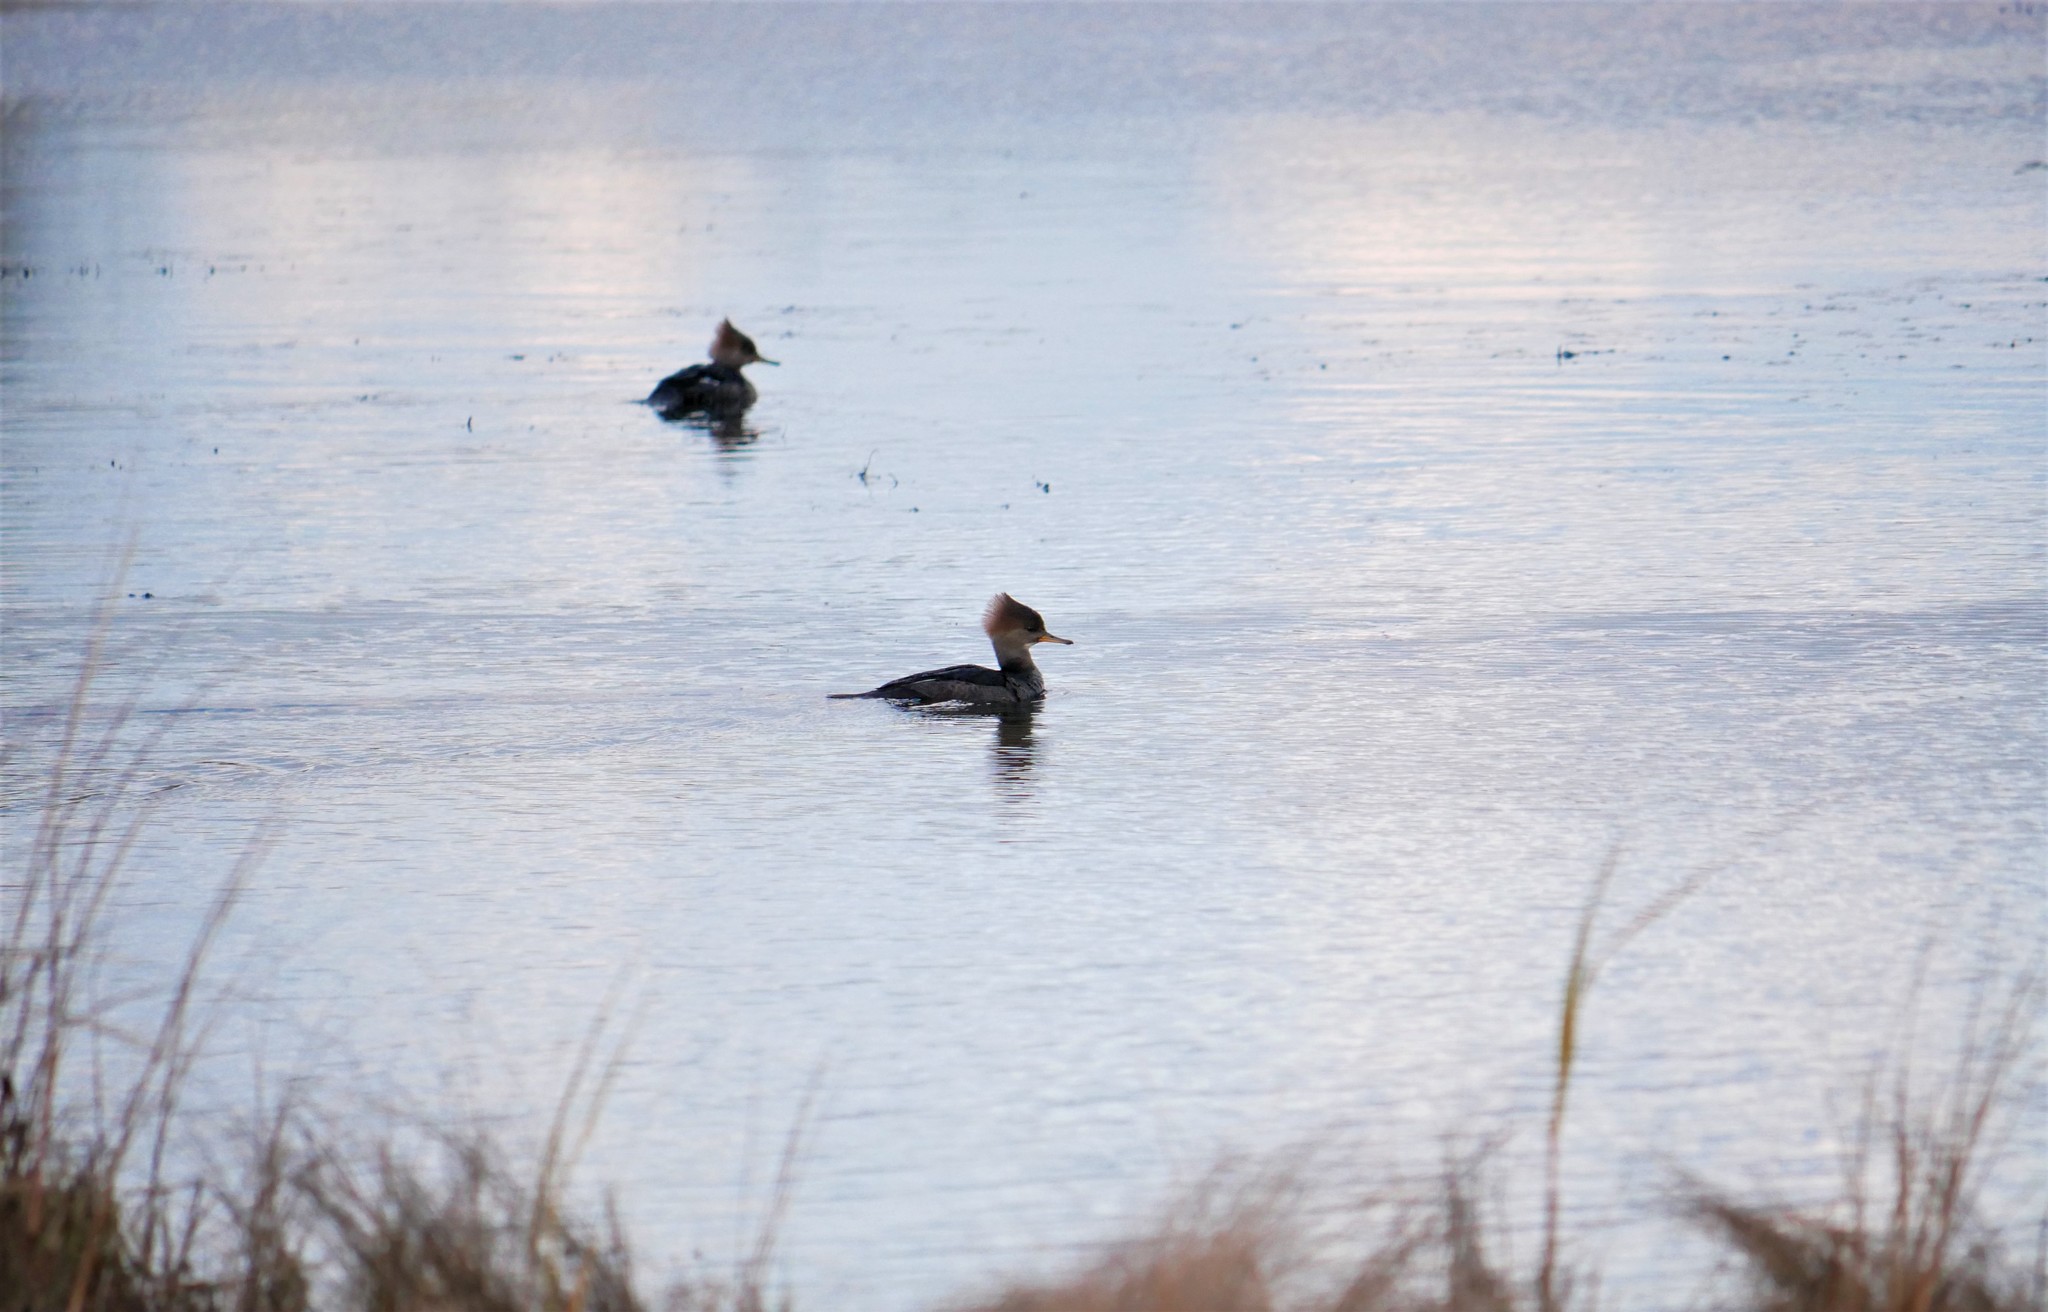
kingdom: Animalia
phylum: Chordata
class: Aves
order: Anseriformes
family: Anatidae
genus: Lophodytes
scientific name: Lophodytes cucullatus
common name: Hooded merganser
